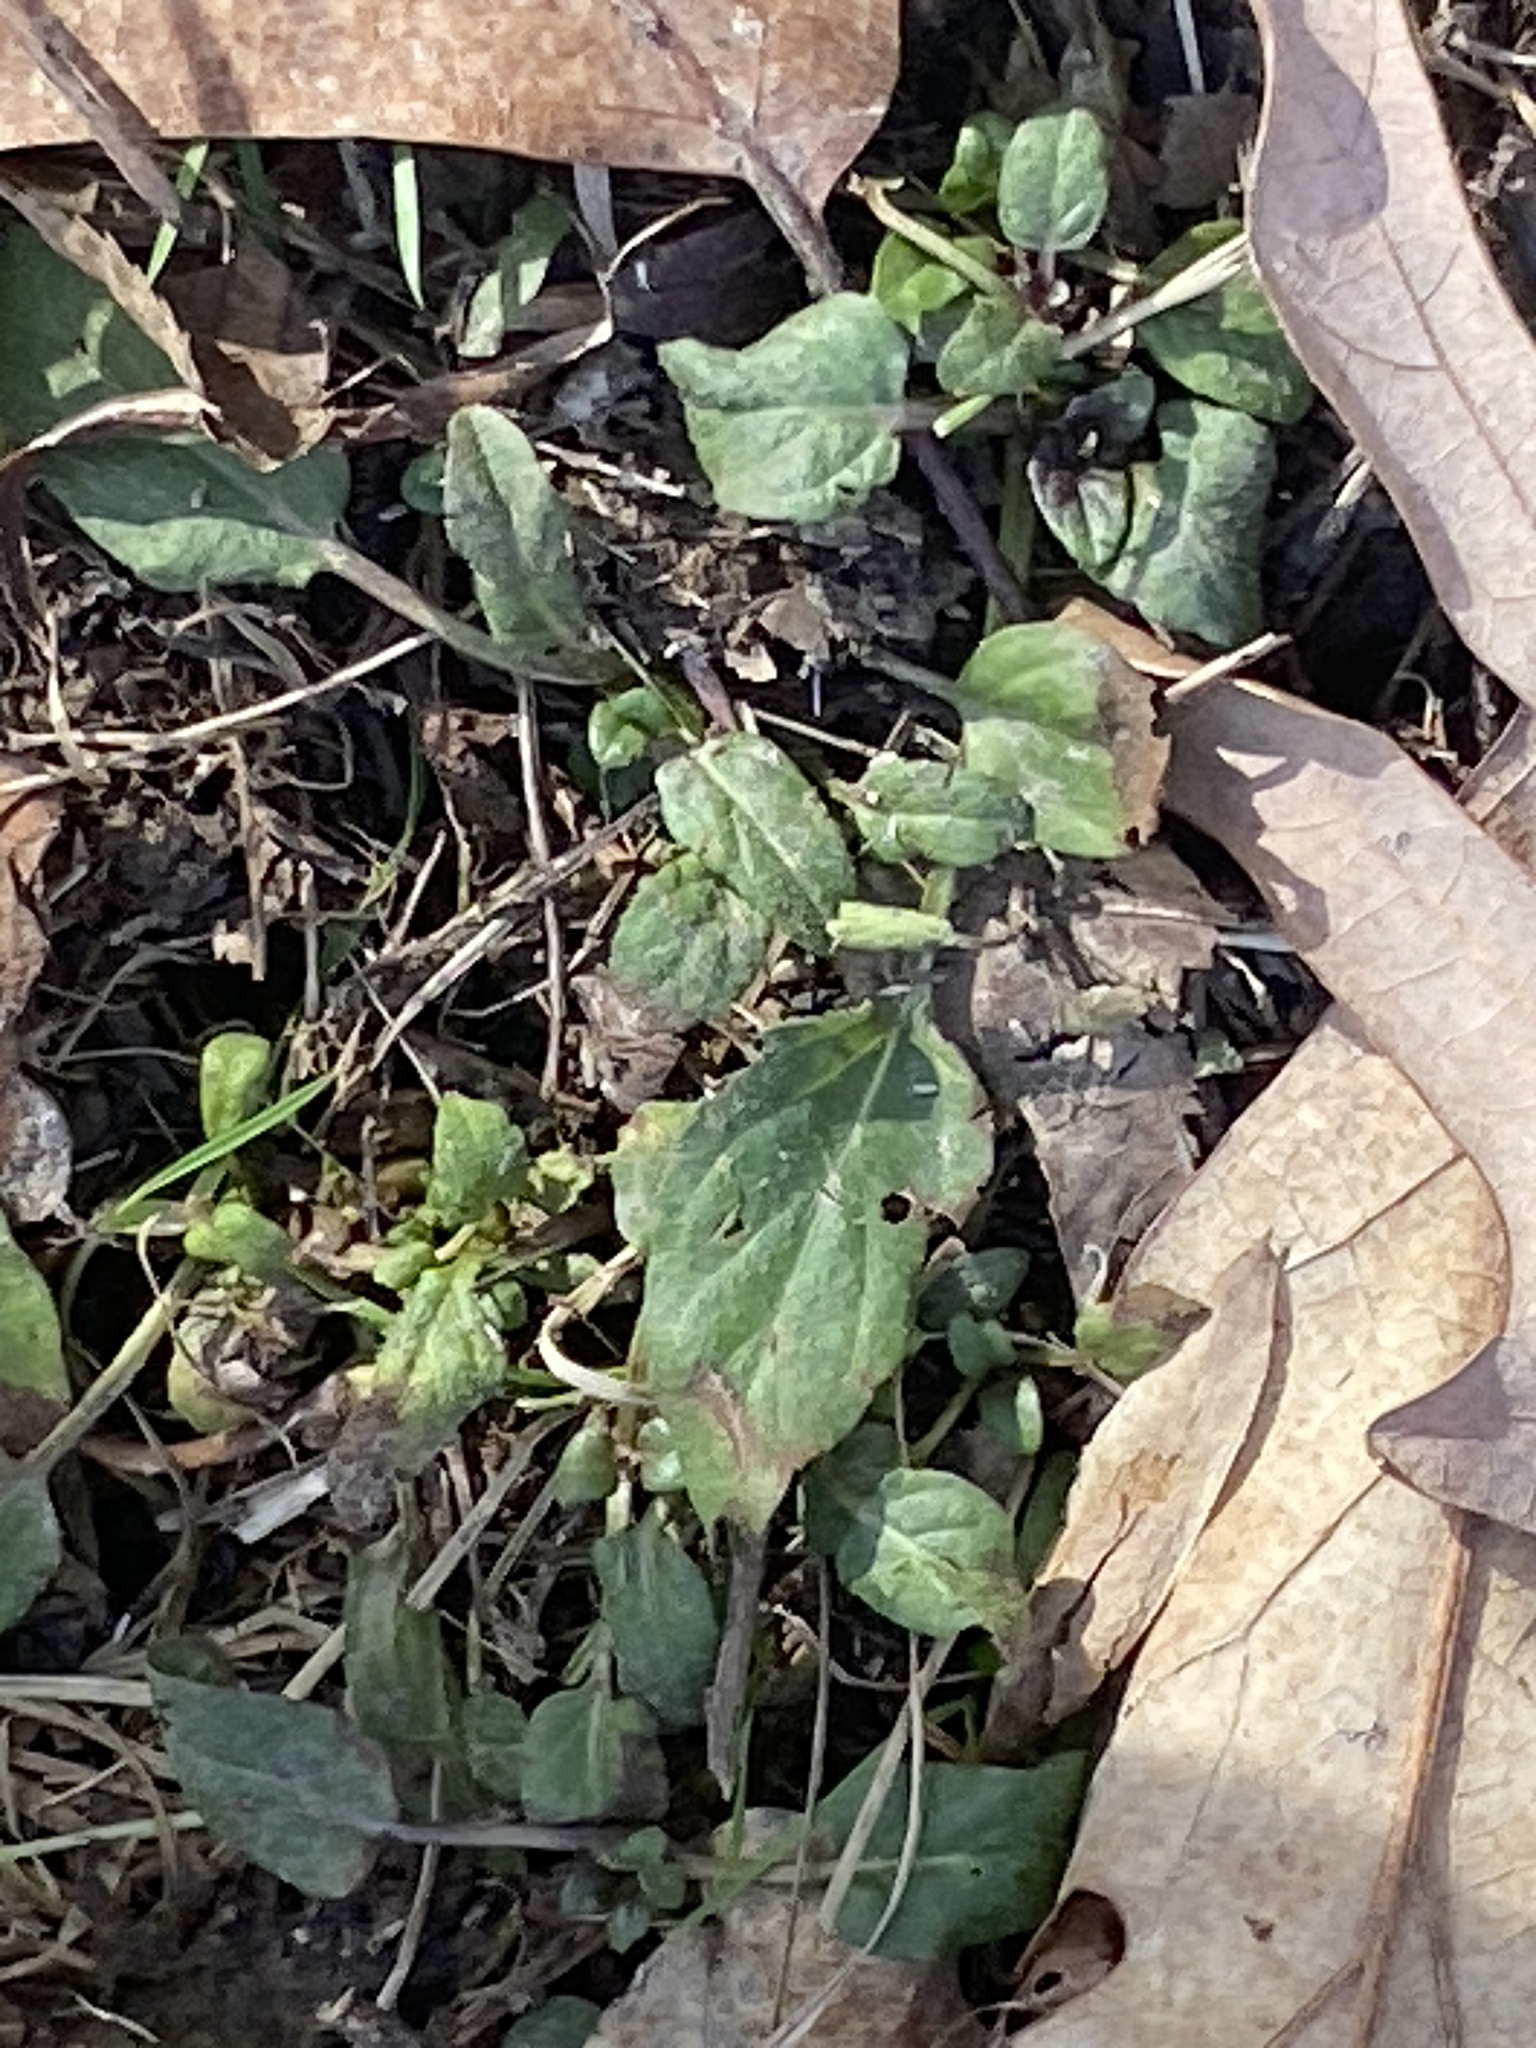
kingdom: Plantae
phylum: Tracheophyta
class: Magnoliopsida
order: Lamiales
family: Lamiaceae
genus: Prunella
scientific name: Prunella vulgaris
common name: Heal-all
